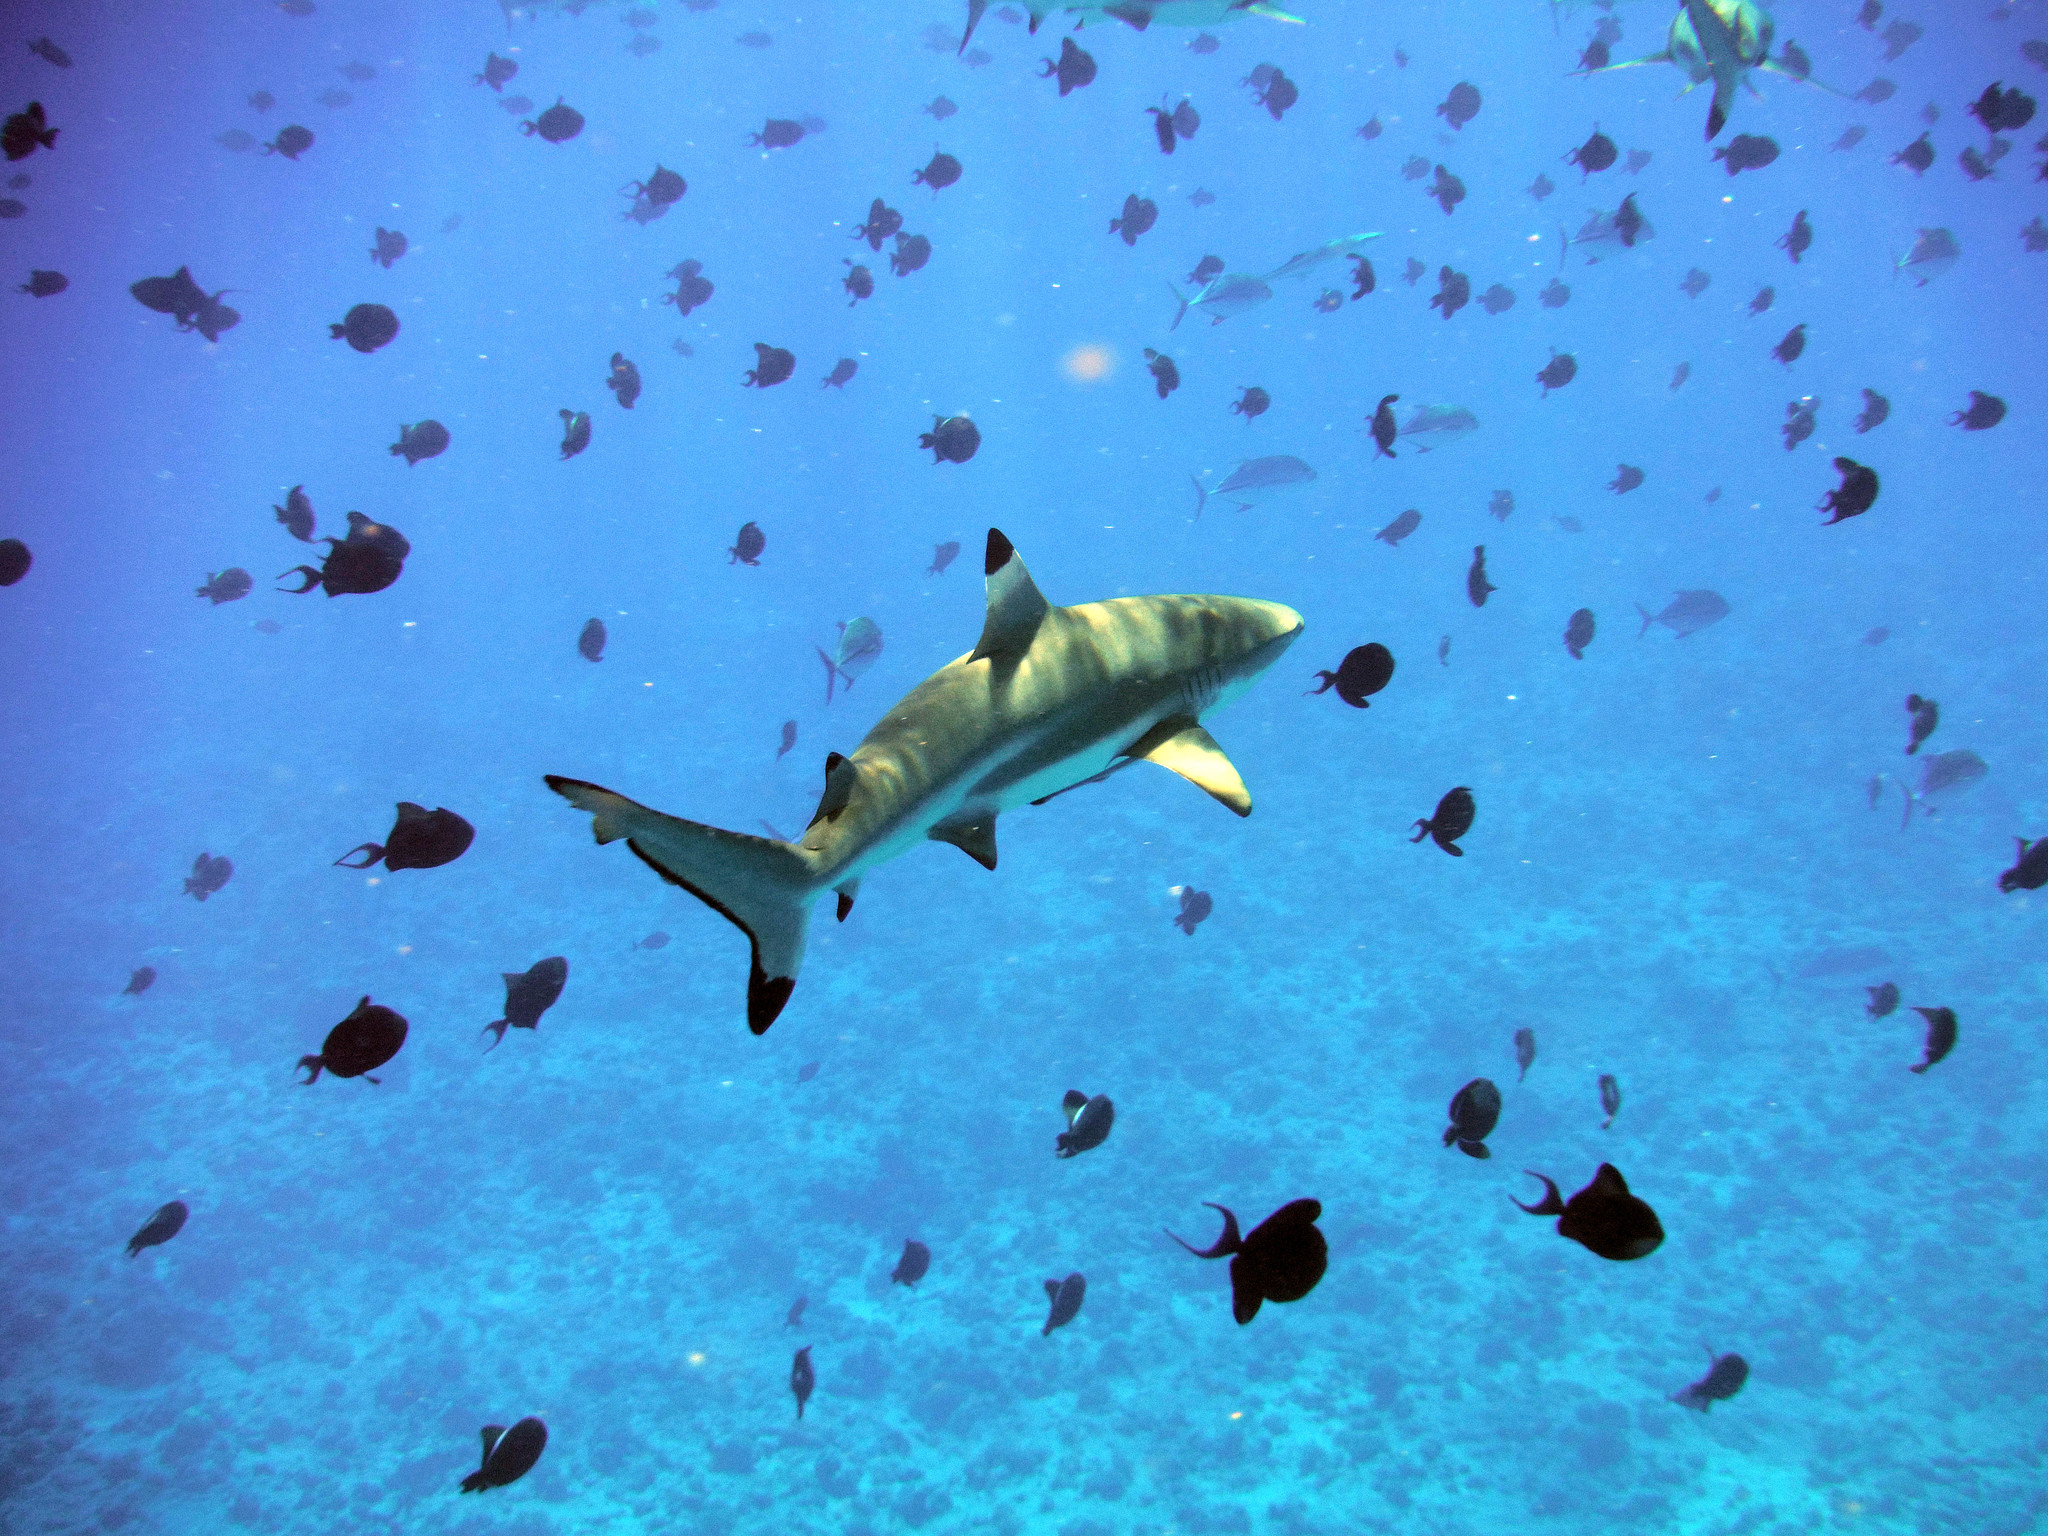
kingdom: Animalia
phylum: Chordata
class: Elasmobranchii
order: Carcharhiniformes
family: Carcharhinidae
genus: Carcharhinus
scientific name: Carcharhinus melanopterus
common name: Blacktip reef shark
